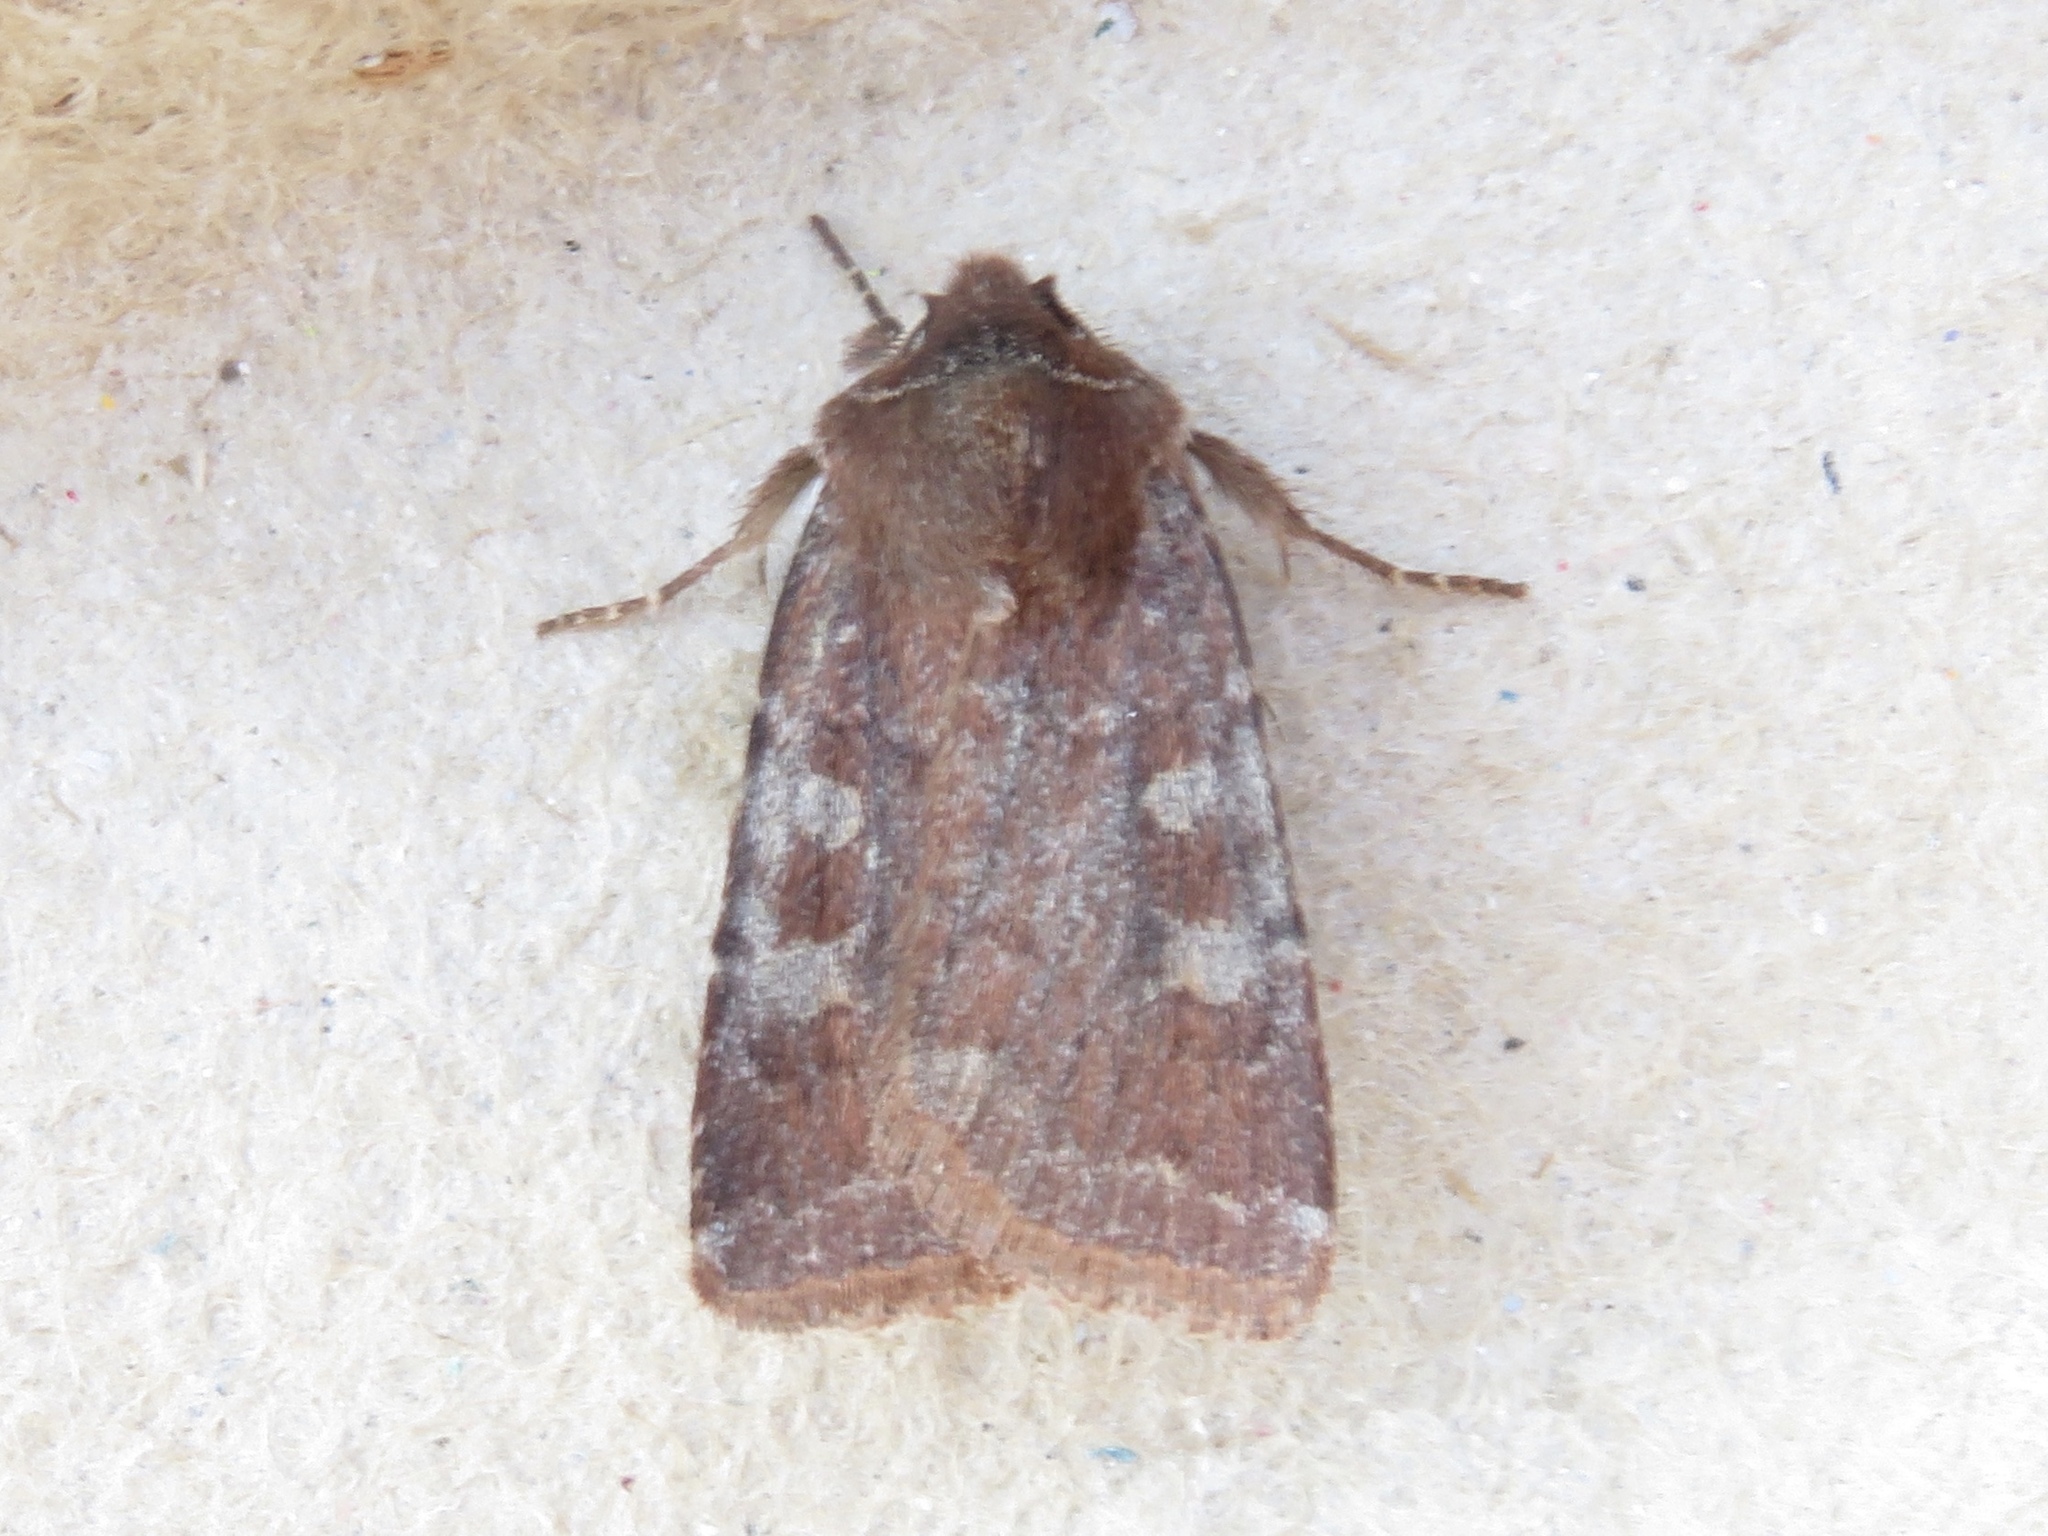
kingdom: Animalia
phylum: Arthropoda
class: Insecta
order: Lepidoptera
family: Noctuidae
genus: Cerastis
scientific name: Cerastis tenebrifera
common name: Reddish speckled dart
